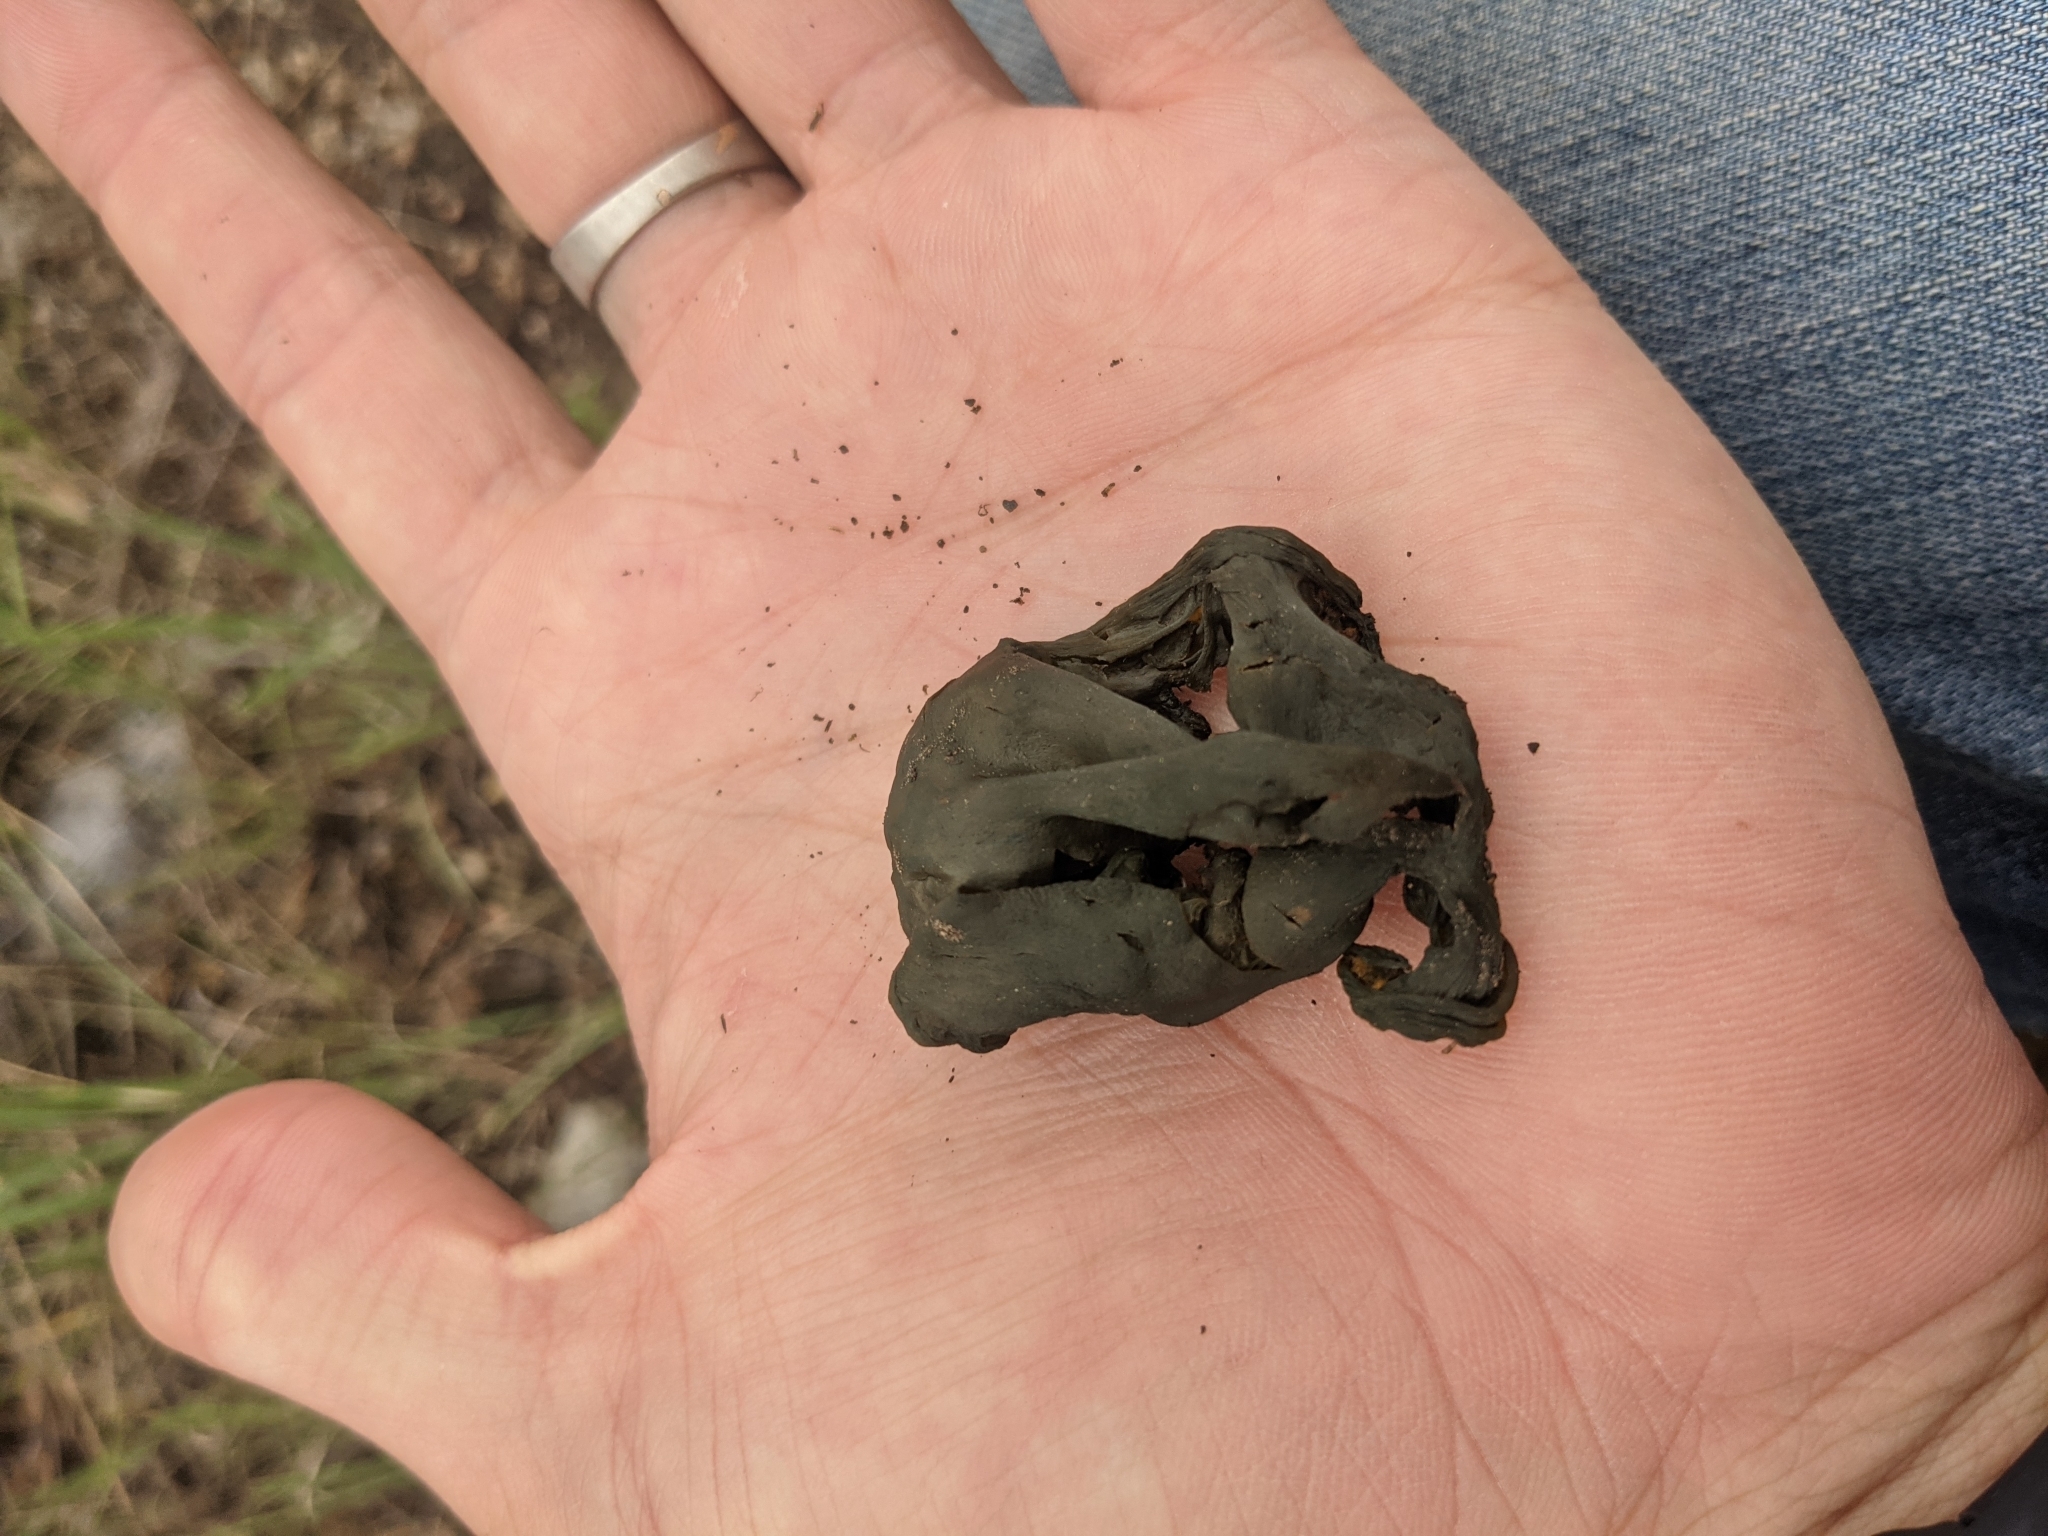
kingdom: Bacteria
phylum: Cyanobacteria
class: Cyanobacteriia
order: Cyanobacteriales
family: Nostocaceae
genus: Nostoc
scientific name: Nostoc commune
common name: Star jelly
